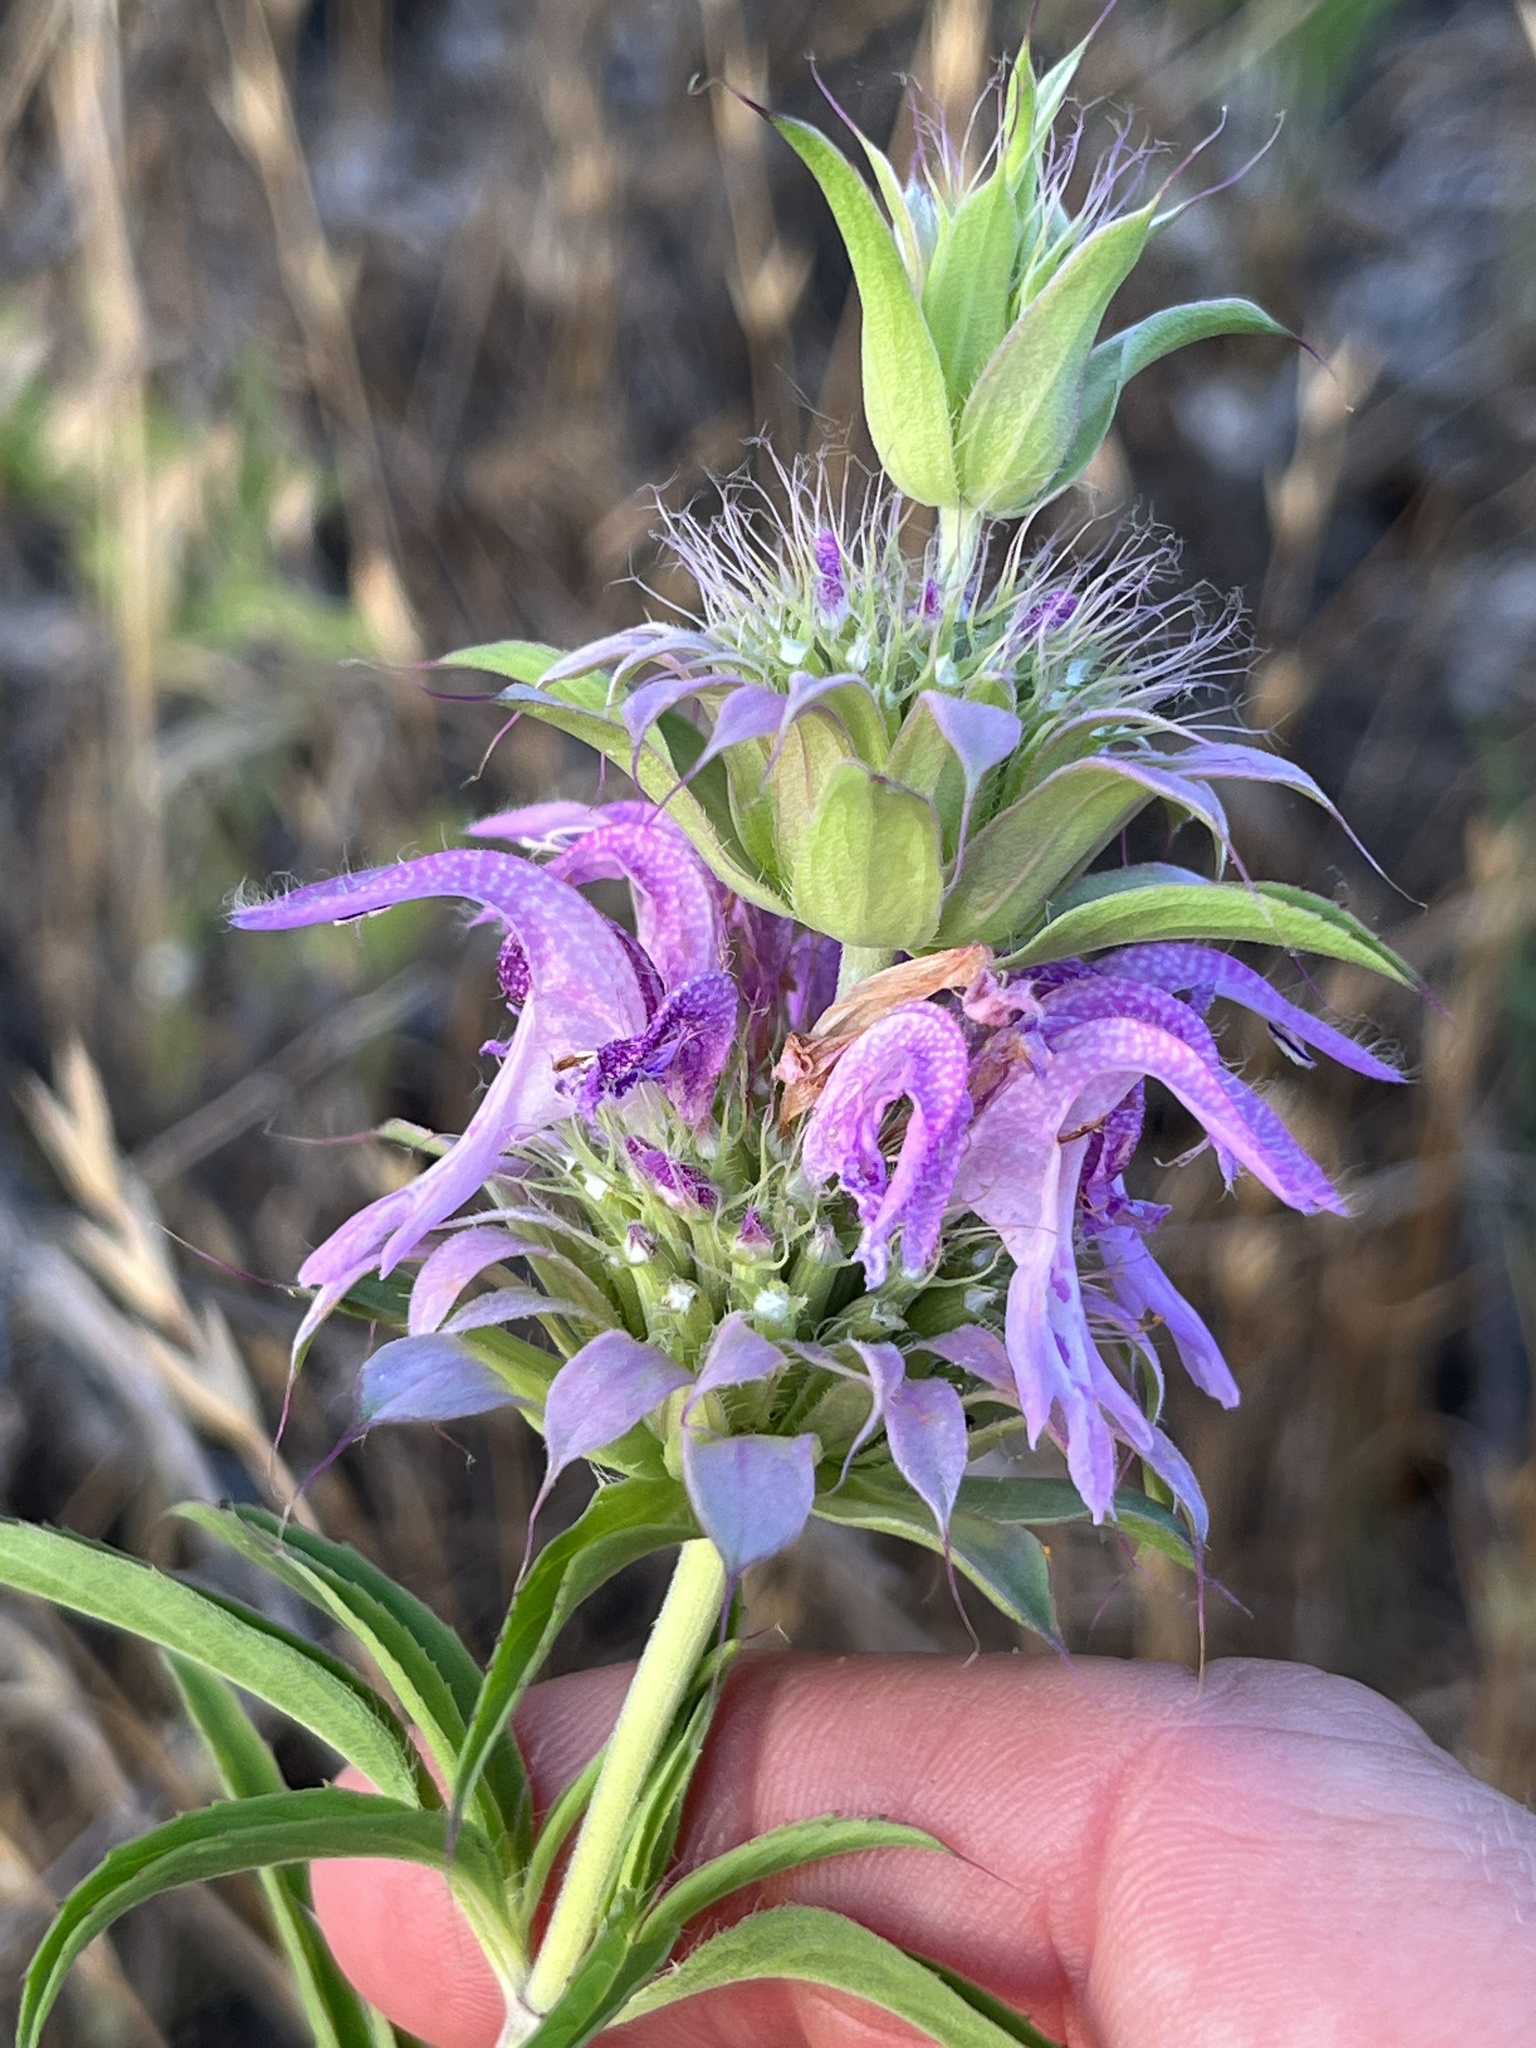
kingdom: Plantae
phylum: Tracheophyta
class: Magnoliopsida
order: Lamiales
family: Lamiaceae
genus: Monarda
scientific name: Monarda citriodora
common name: Lemon beebalm
